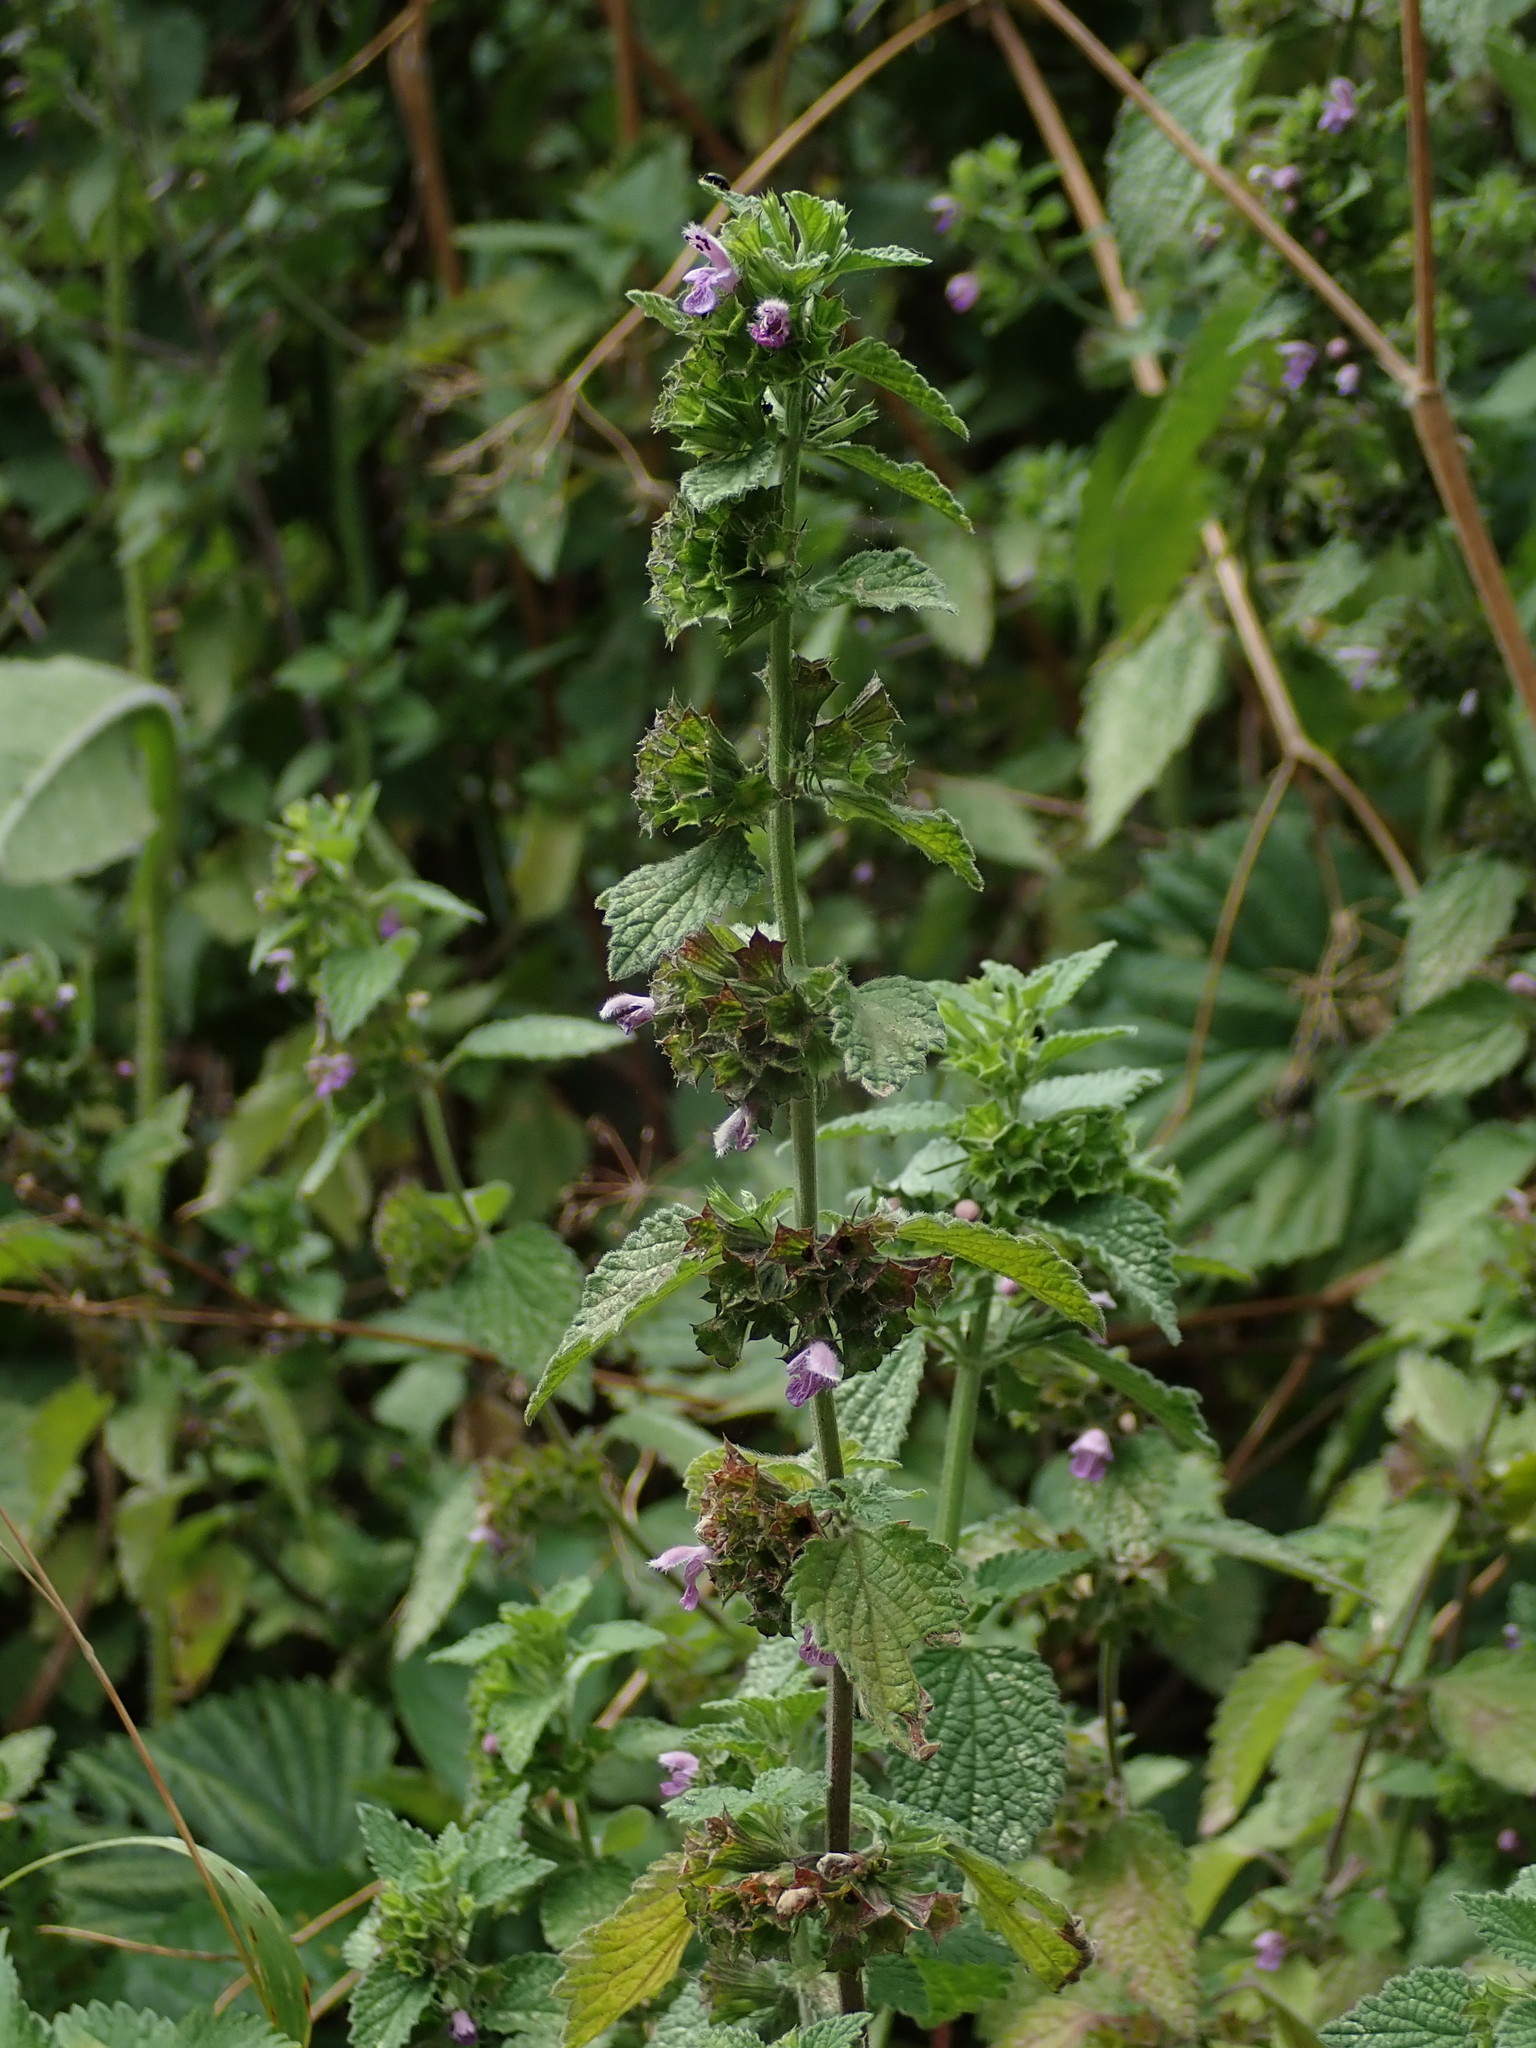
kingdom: Plantae
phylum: Tracheophyta
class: Magnoliopsida
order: Lamiales
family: Lamiaceae
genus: Ballota
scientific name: Ballota nigra
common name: Black horehound
